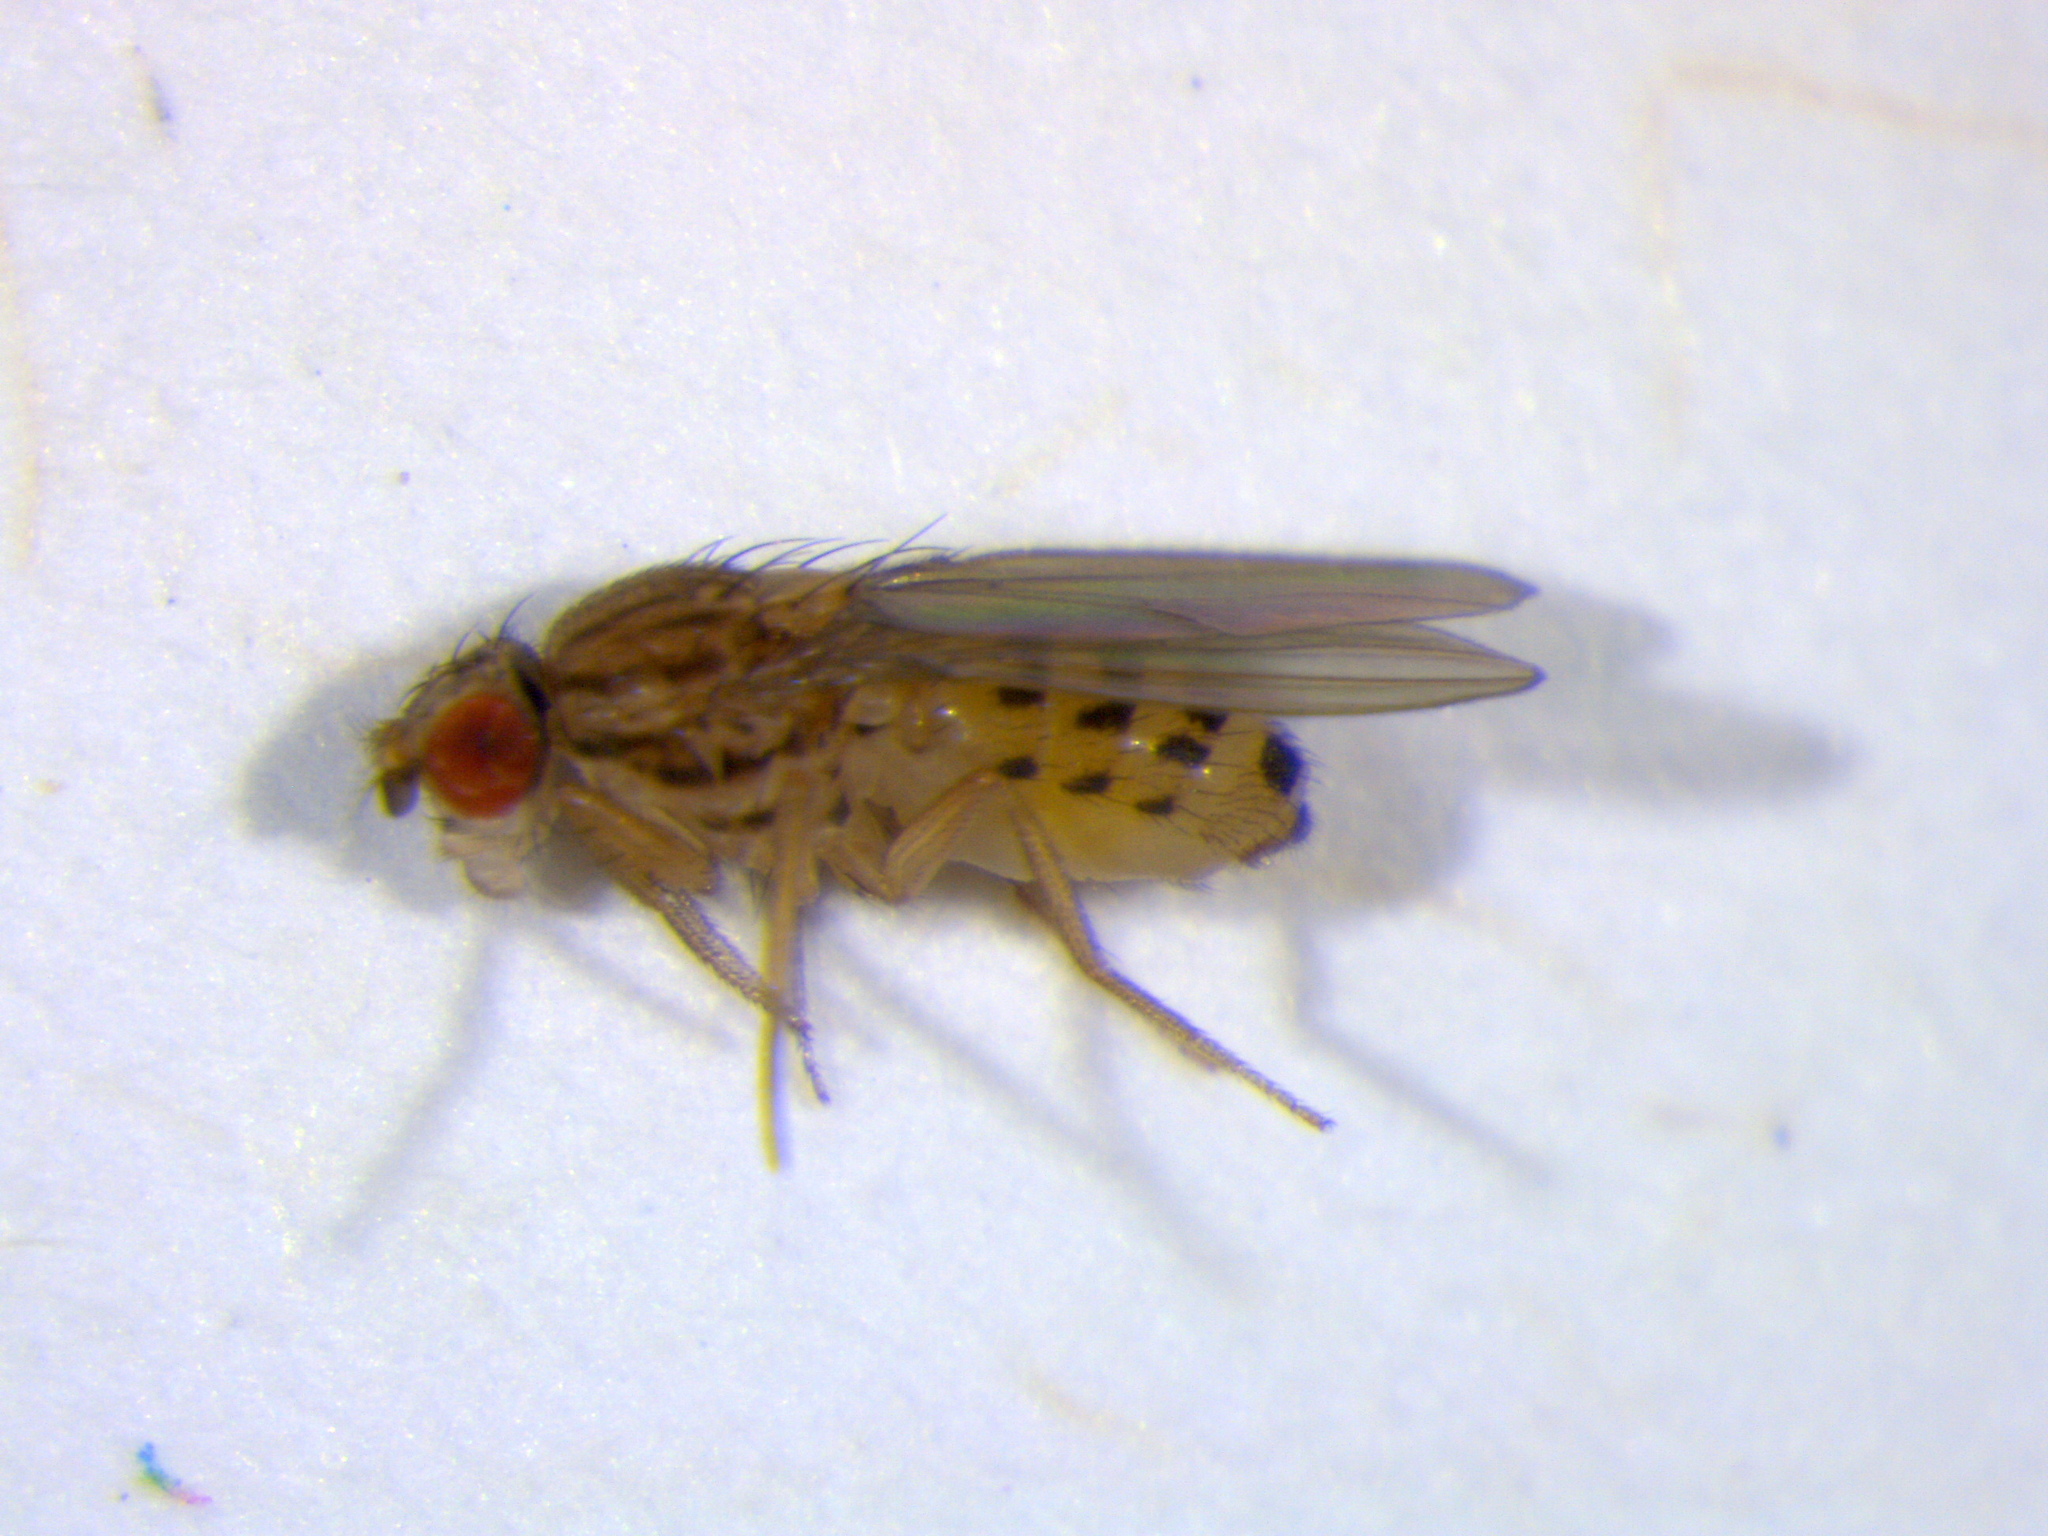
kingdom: Animalia
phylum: Arthropoda
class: Insecta
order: Diptera
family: Drosophilidae
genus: Drosophila
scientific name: Drosophila busckii
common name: Pomace fly
